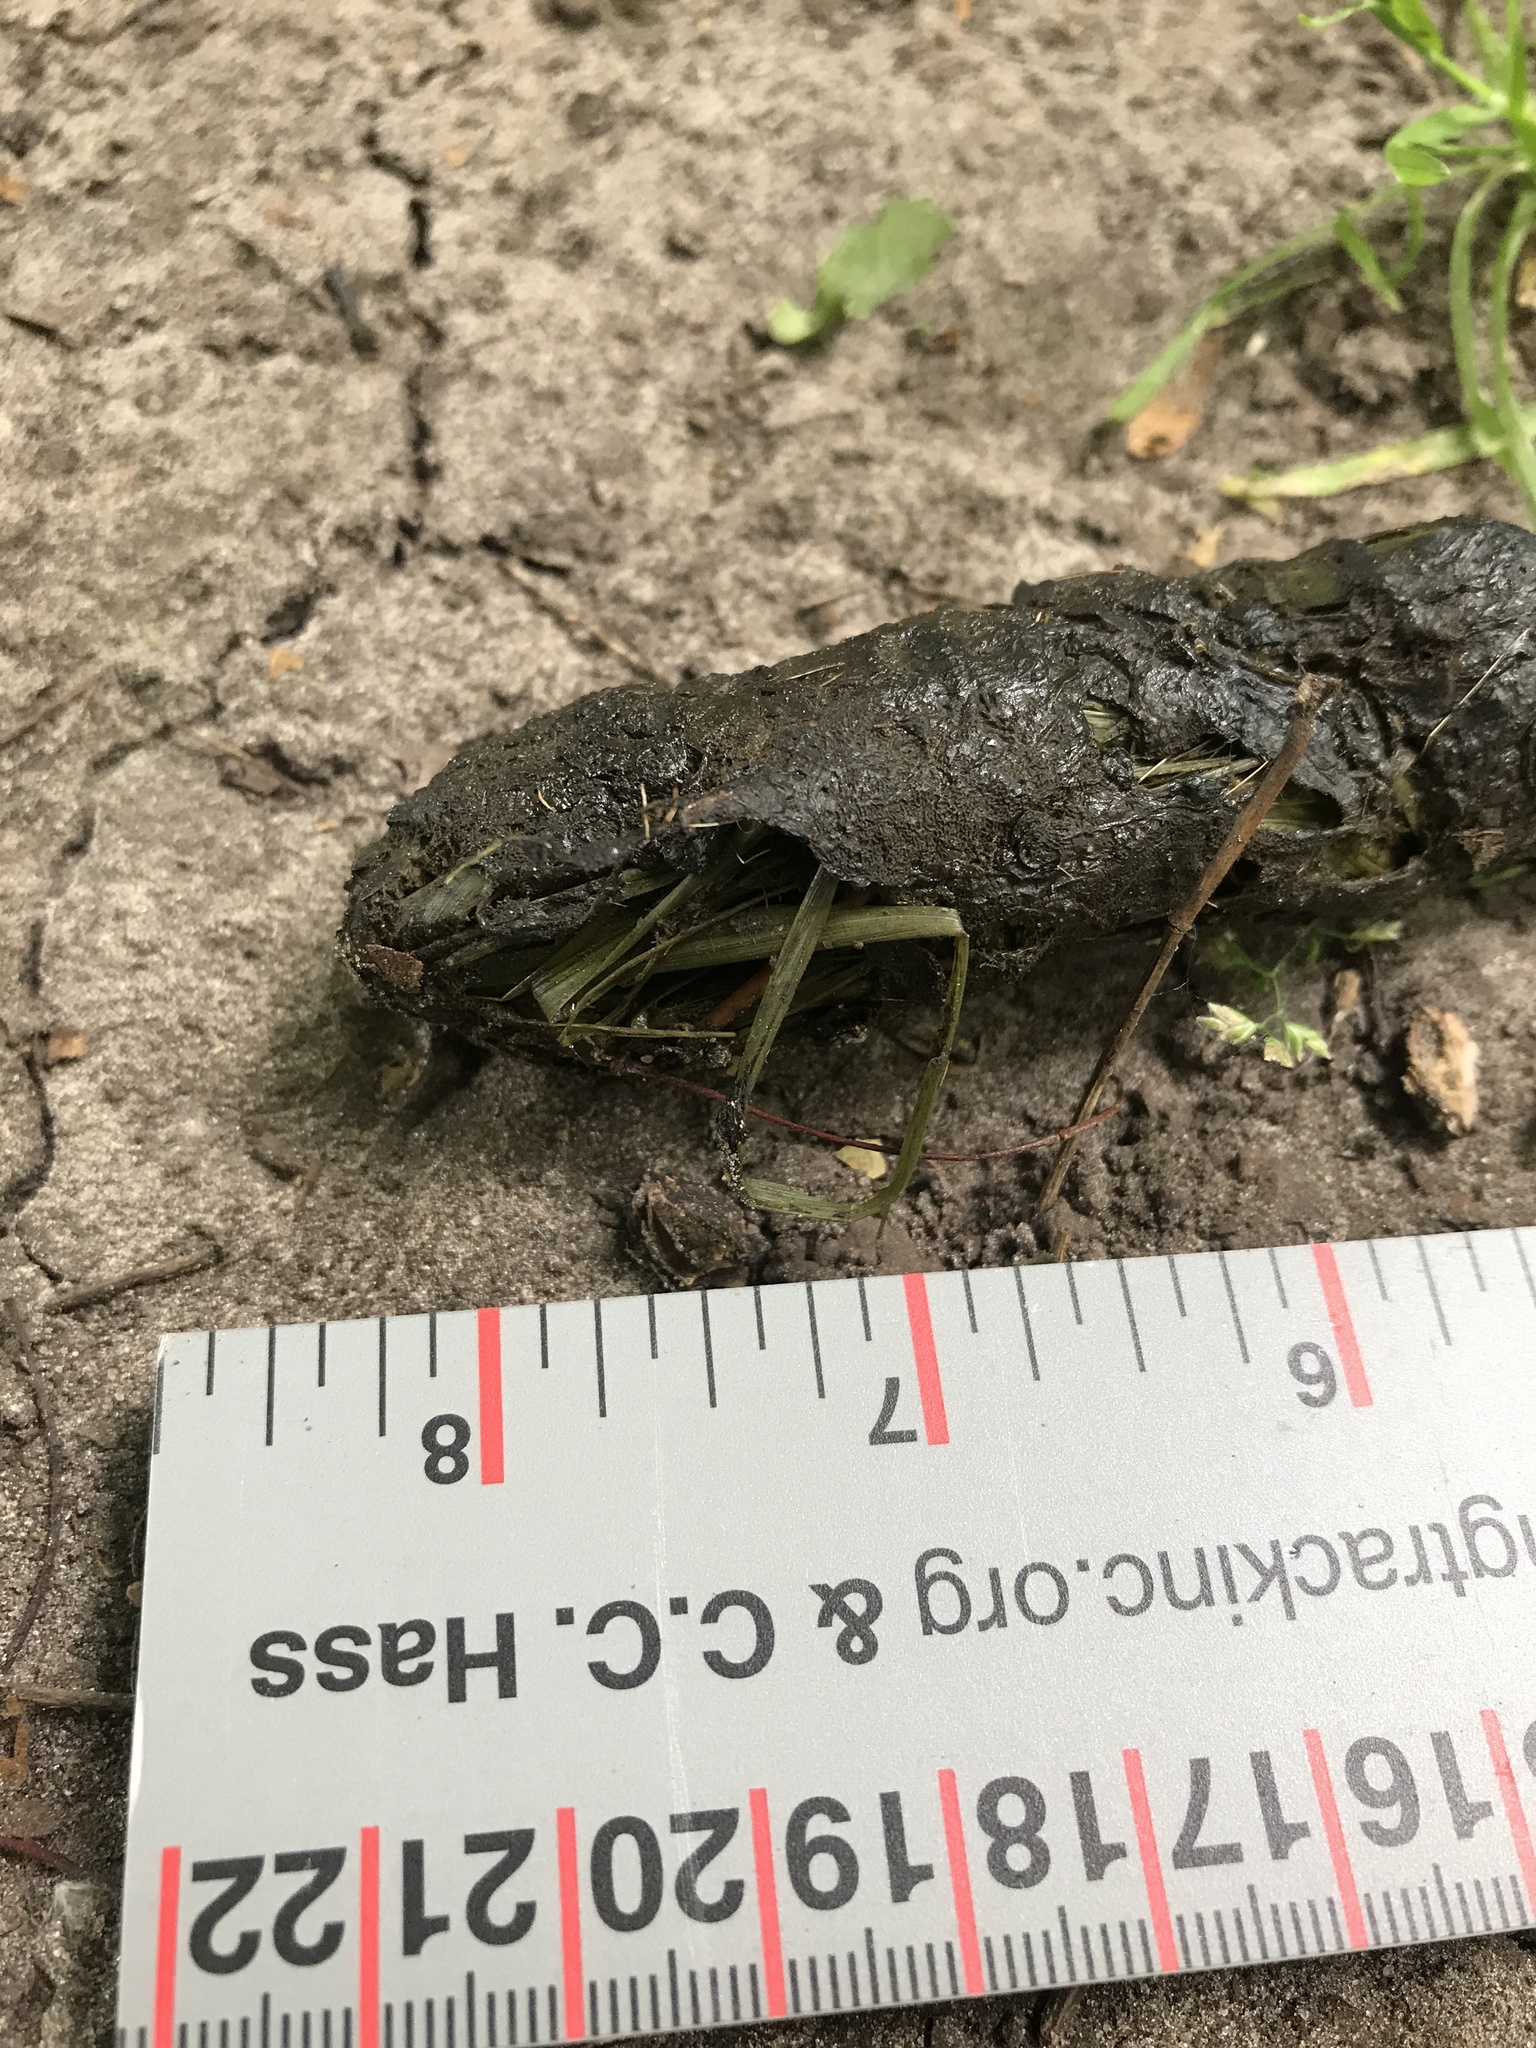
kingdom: Animalia
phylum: Chordata
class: Mammalia
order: Carnivora
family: Canidae
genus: Canis
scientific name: Canis latrans
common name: Coyote
